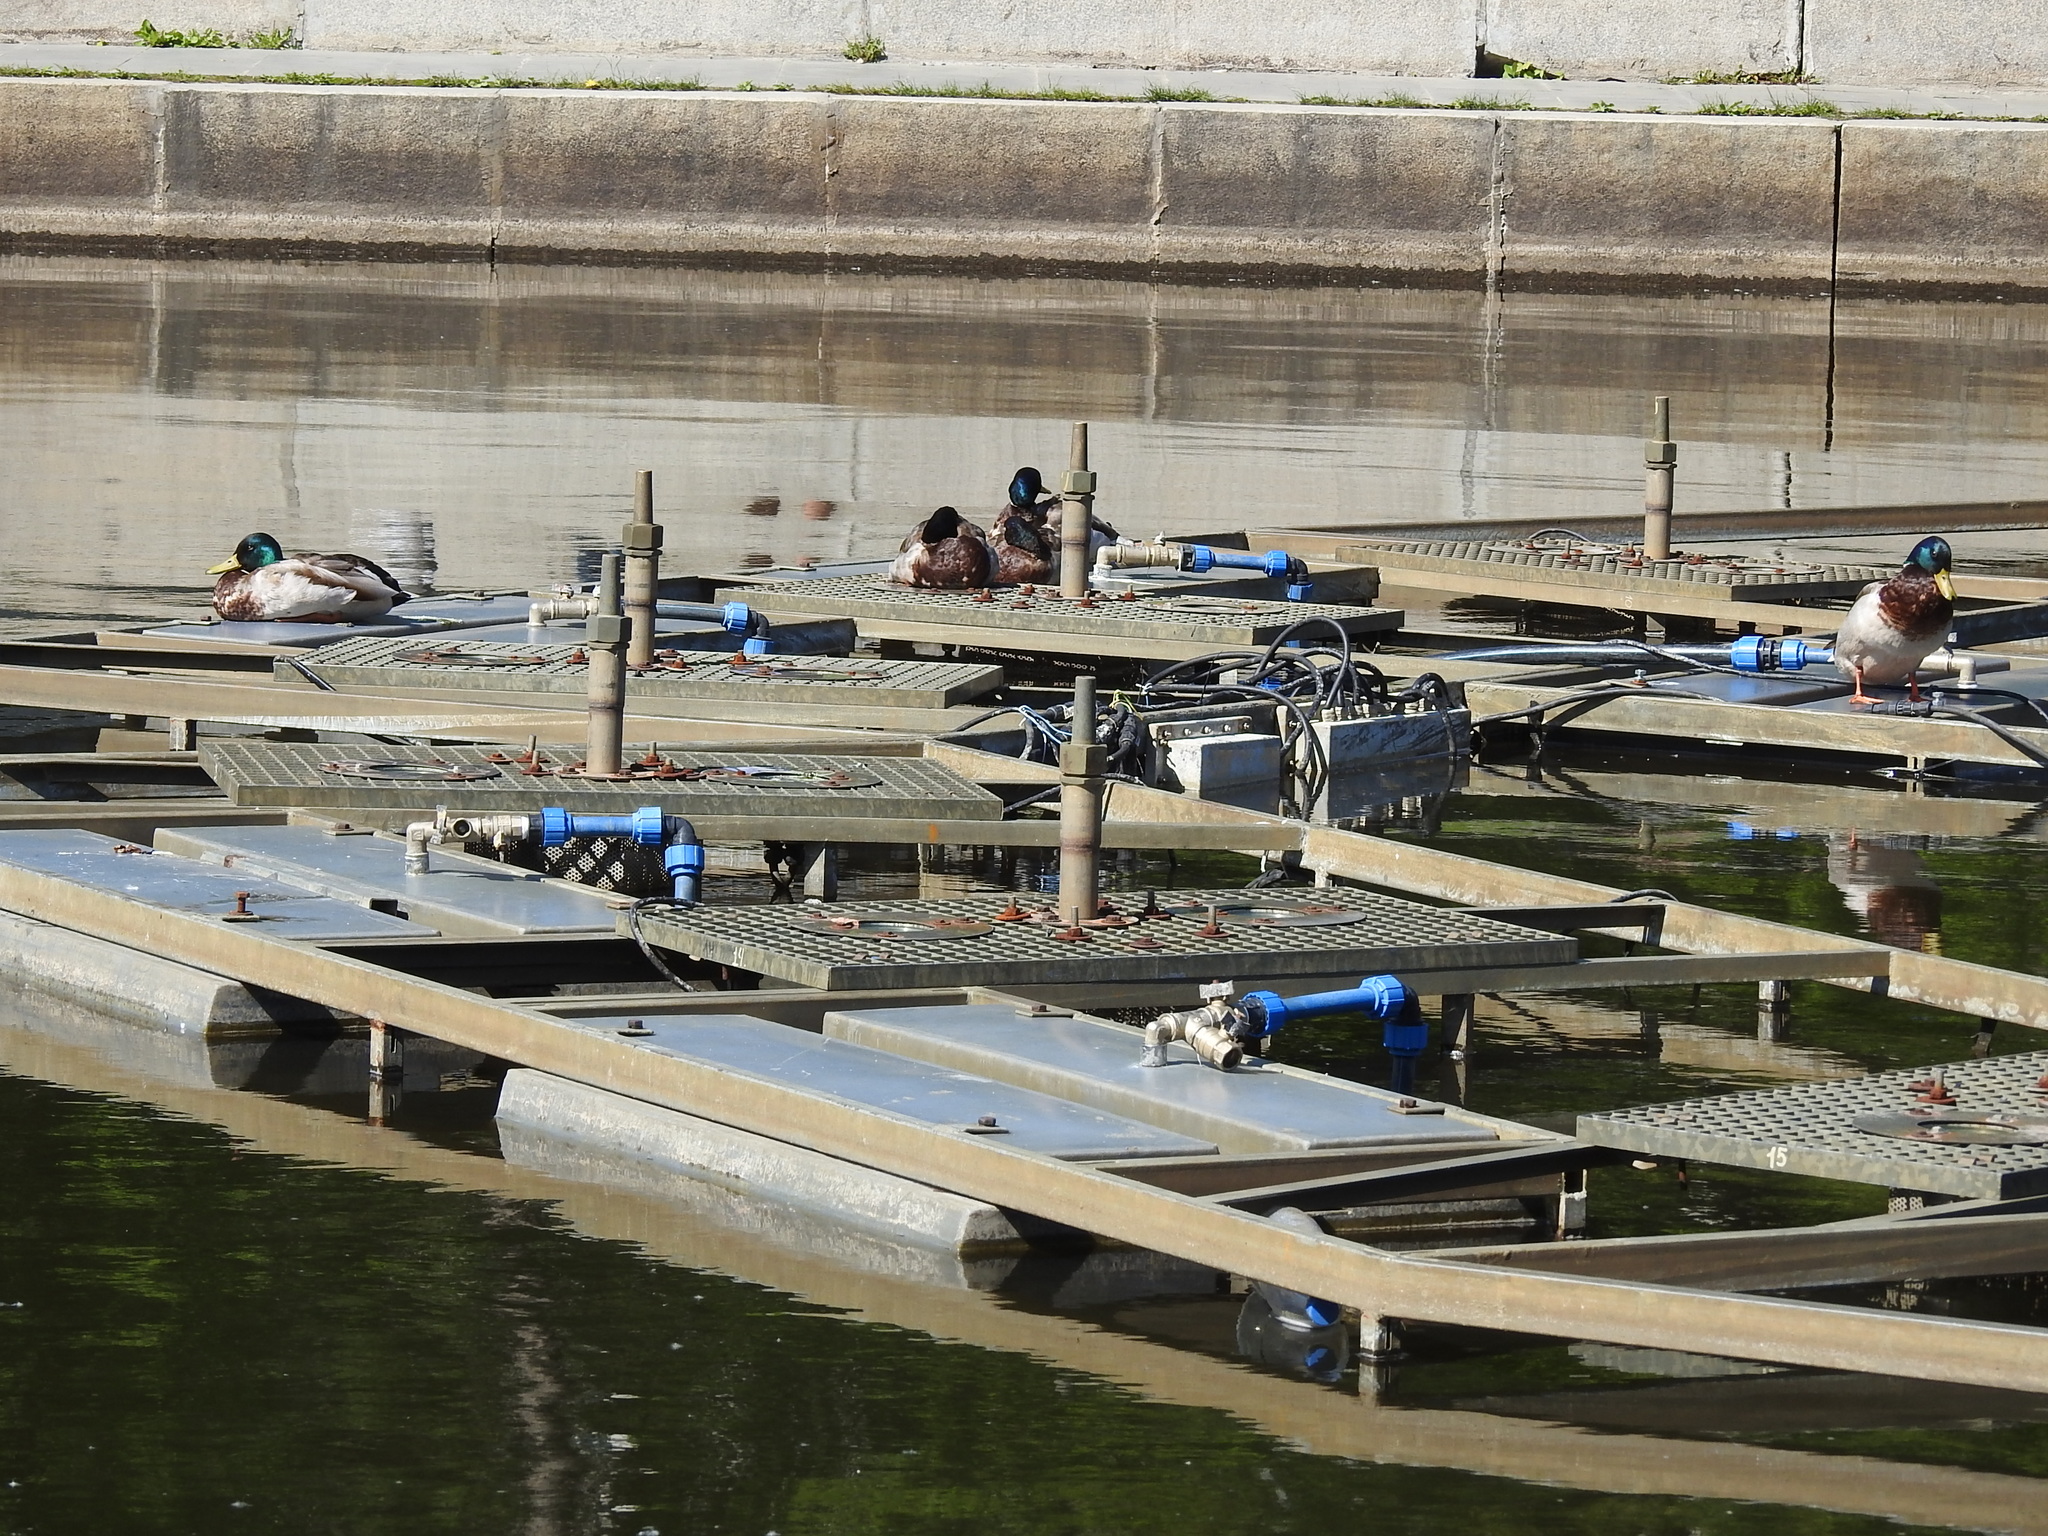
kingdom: Animalia
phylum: Chordata
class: Aves
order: Anseriformes
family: Anatidae
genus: Anas
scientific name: Anas platyrhynchos
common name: Mallard
